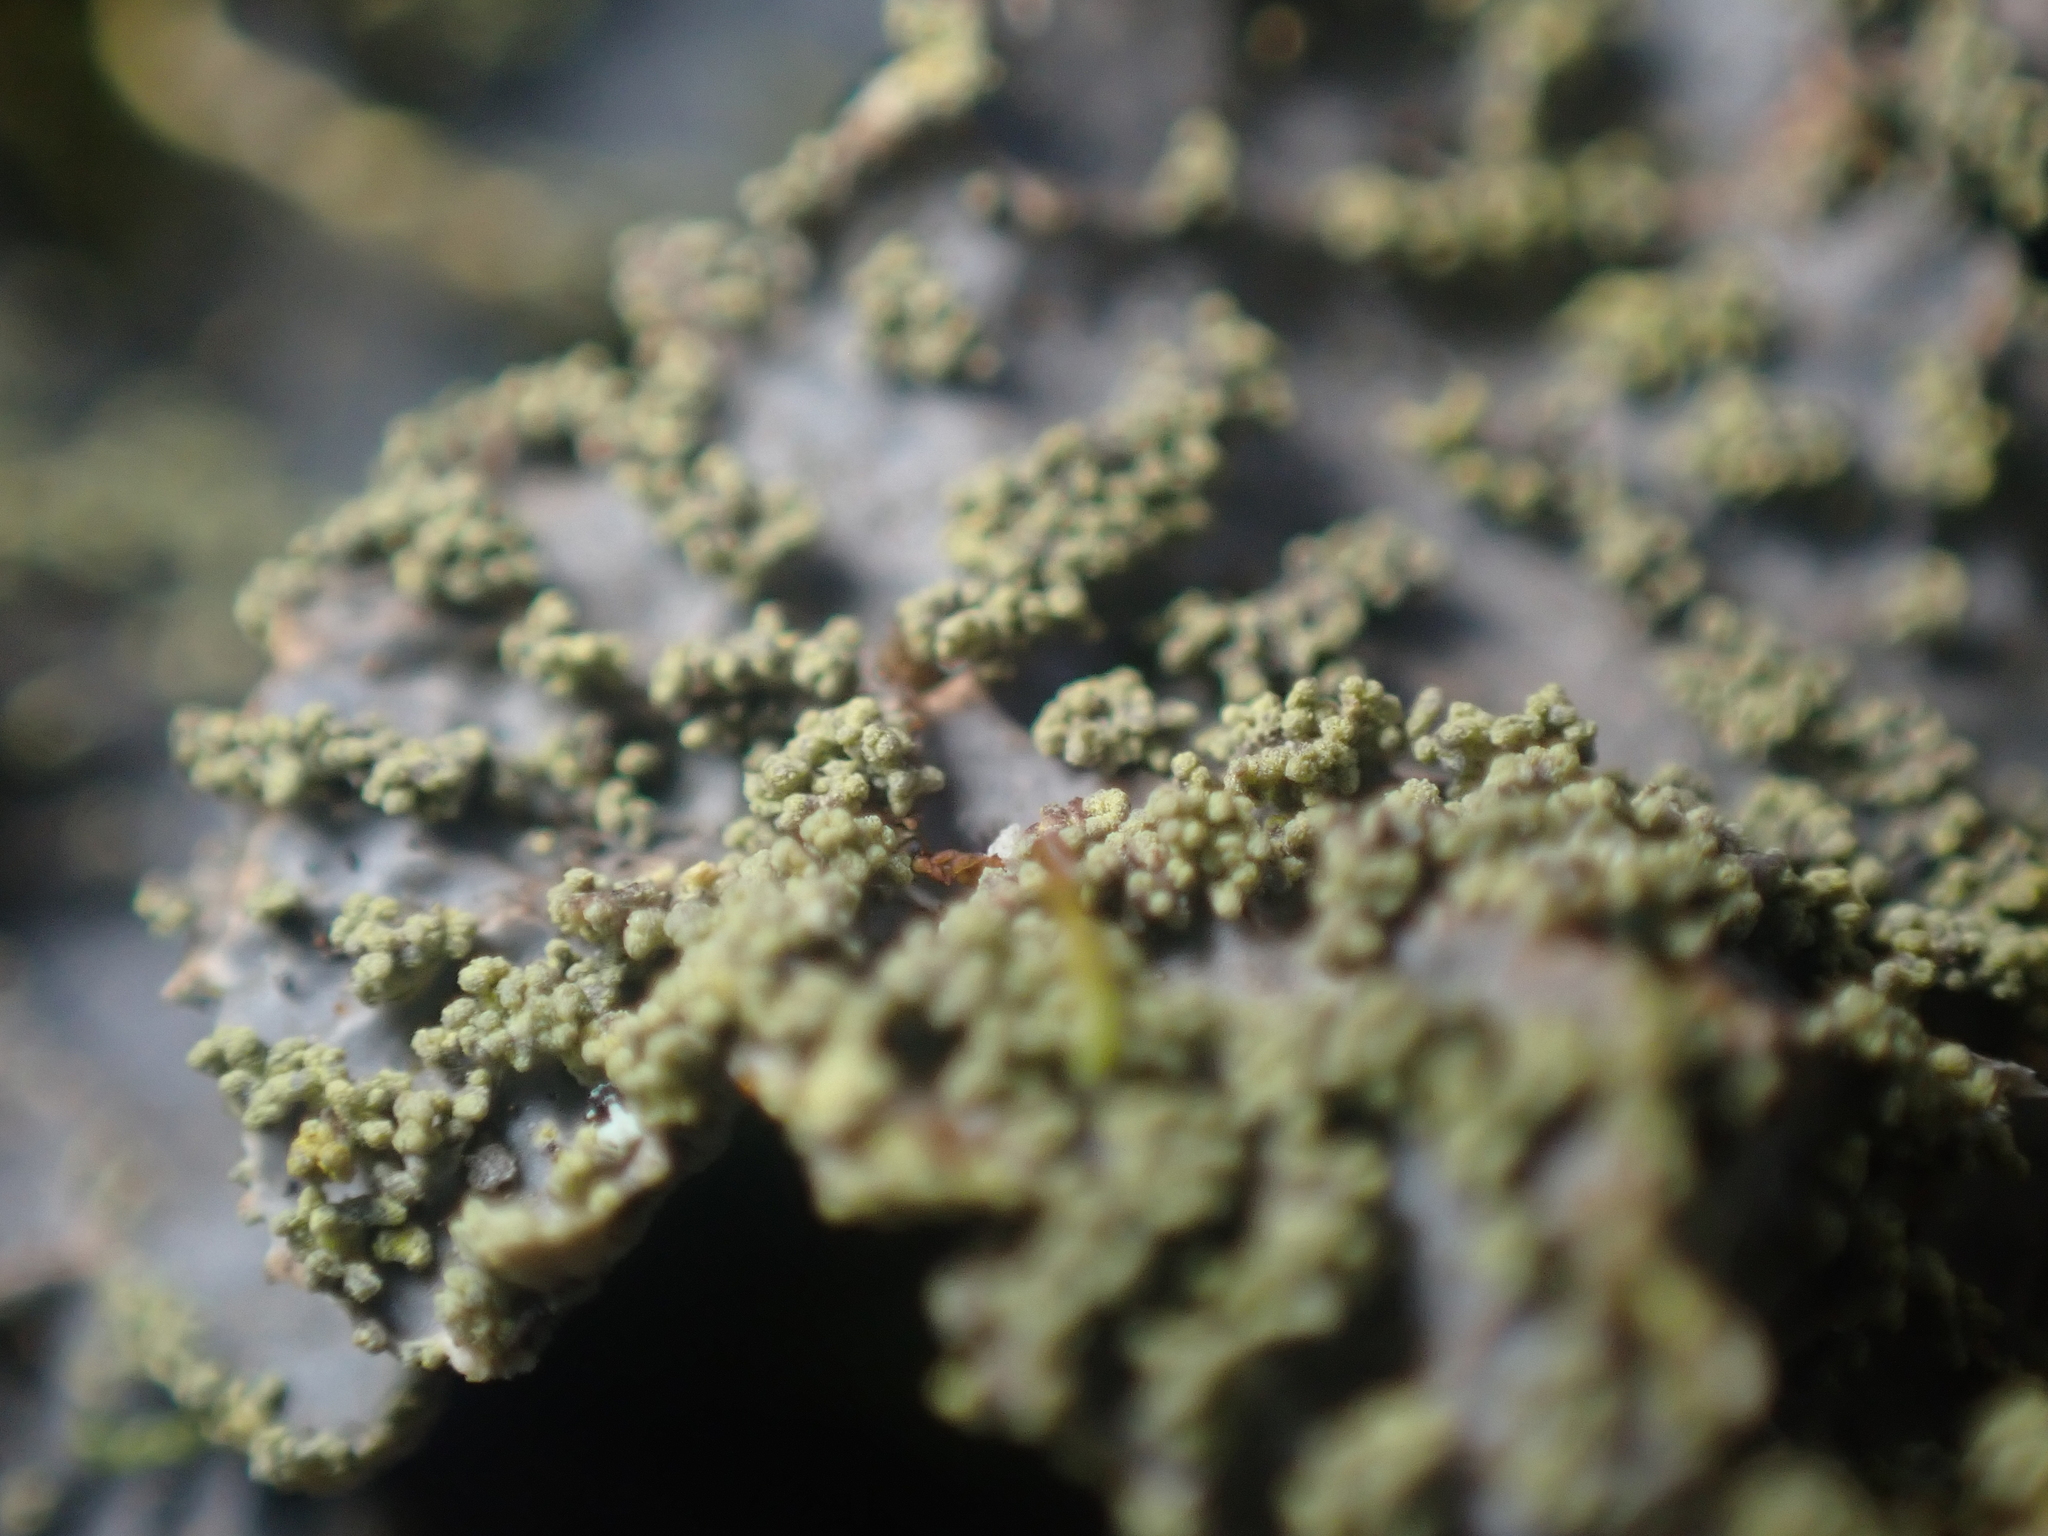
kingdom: Fungi
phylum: Ascomycota
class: Lecanoromycetes
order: Peltigerales
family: Lobariaceae
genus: Pseudocyphellaria
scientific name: Pseudocyphellaria neglecta
